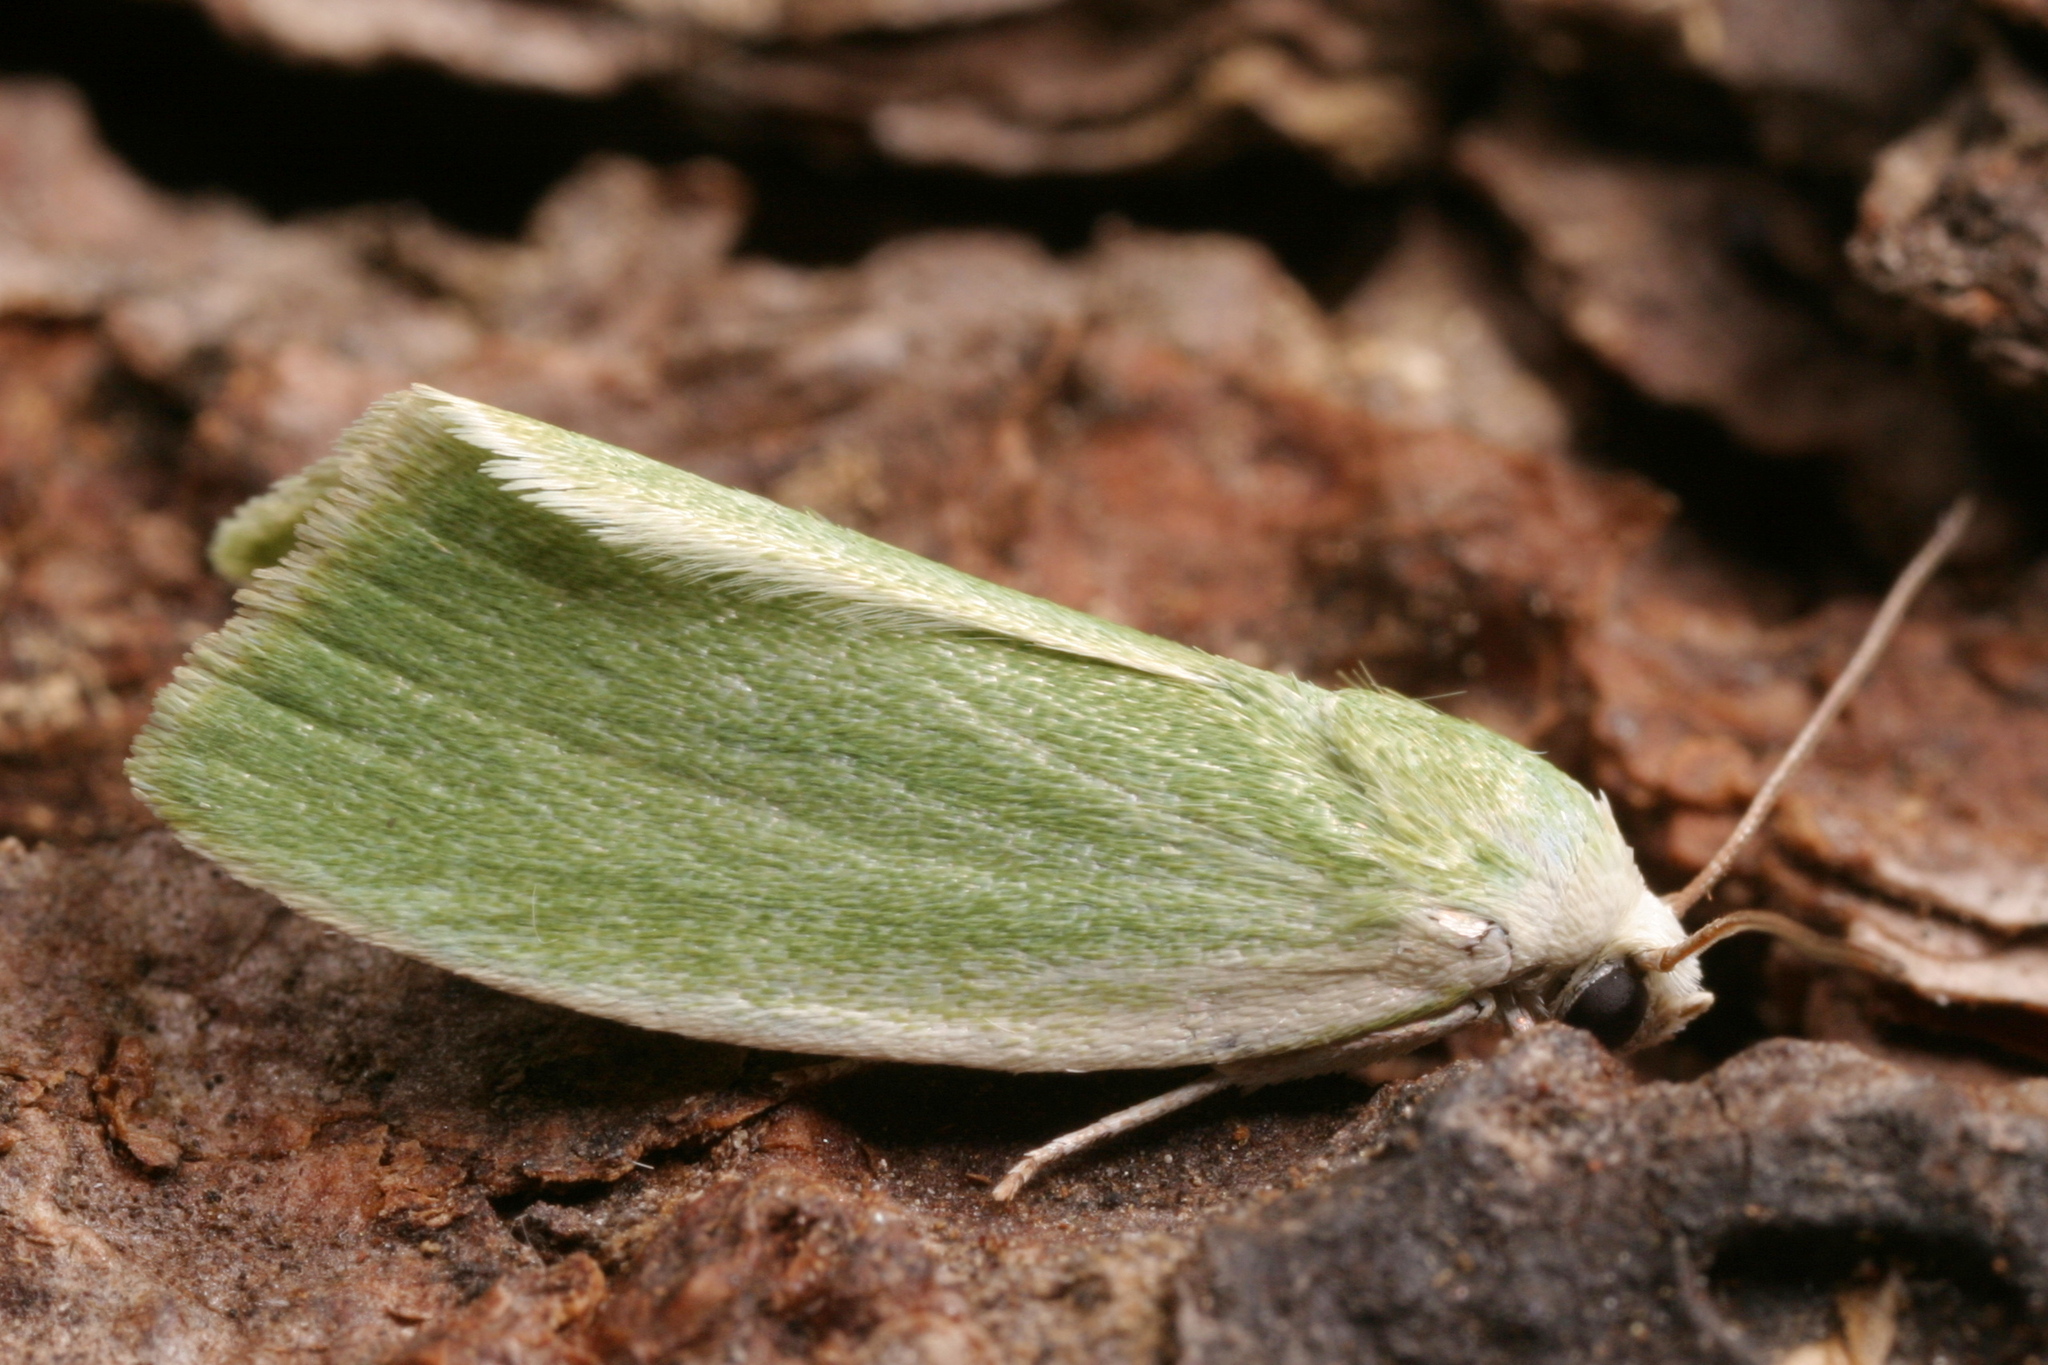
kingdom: Animalia
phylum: Arthropoda
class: Insecta
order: Lepidoptera
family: Nolidae
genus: Earias
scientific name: Earias clorana
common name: Cream-bordered green pea
